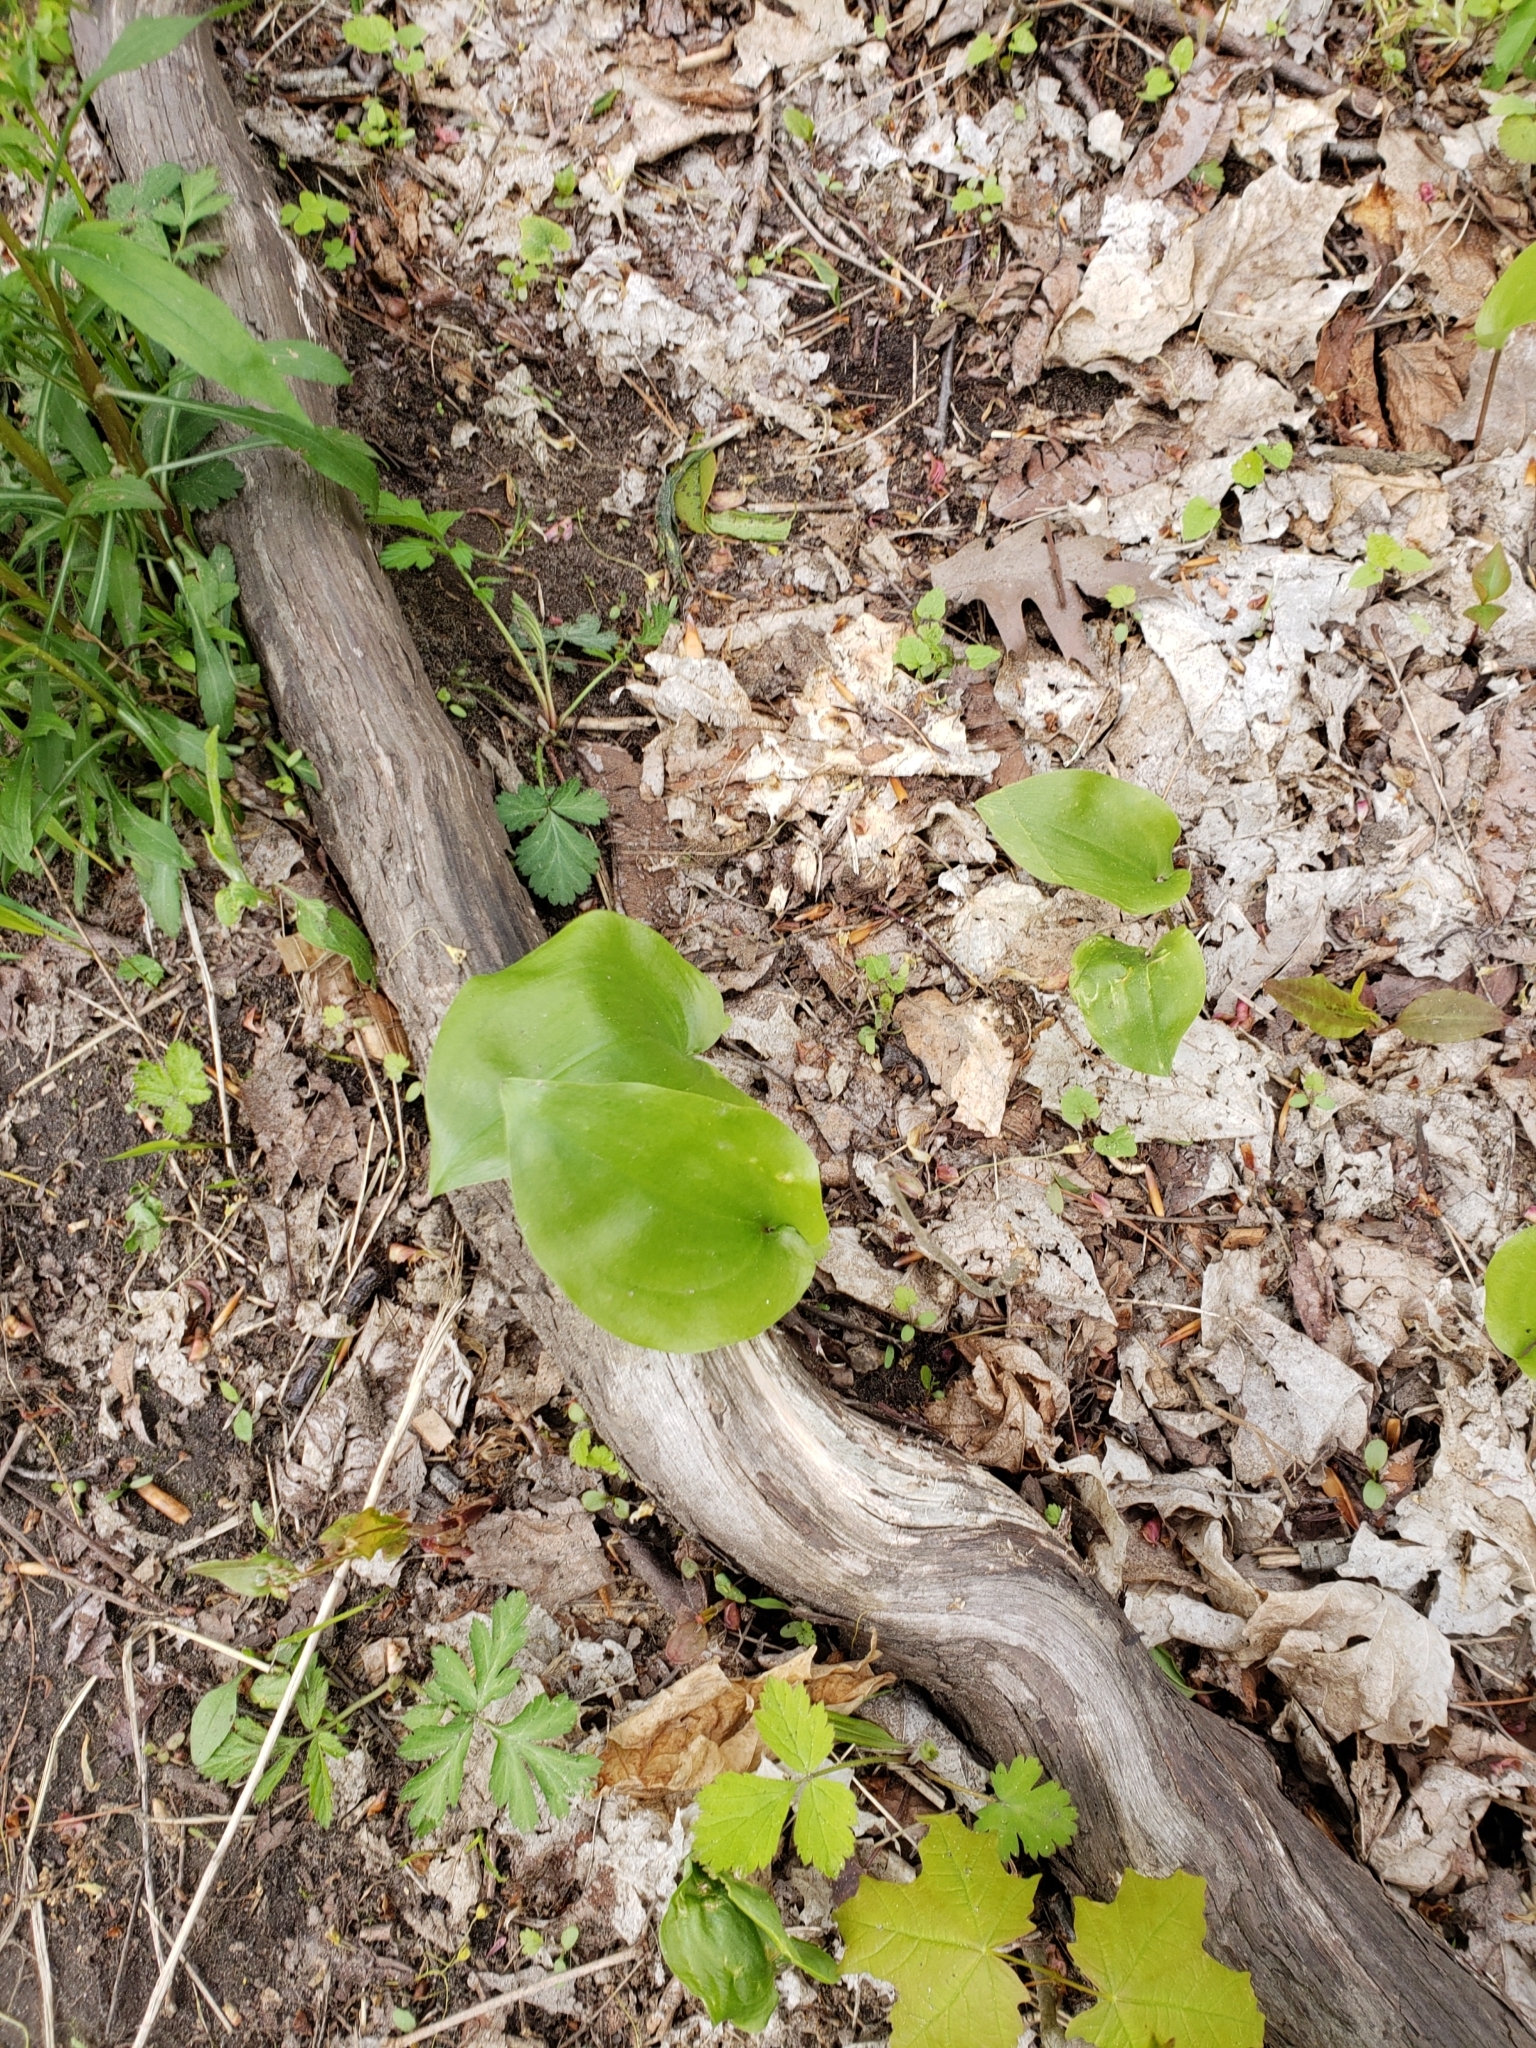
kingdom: Plantae
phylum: Tracheophyta
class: Liliopsida
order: Asparagales
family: Asparagaceae
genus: Maianthemum
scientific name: Maianthemum canadense
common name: False lily-of-the-valley
